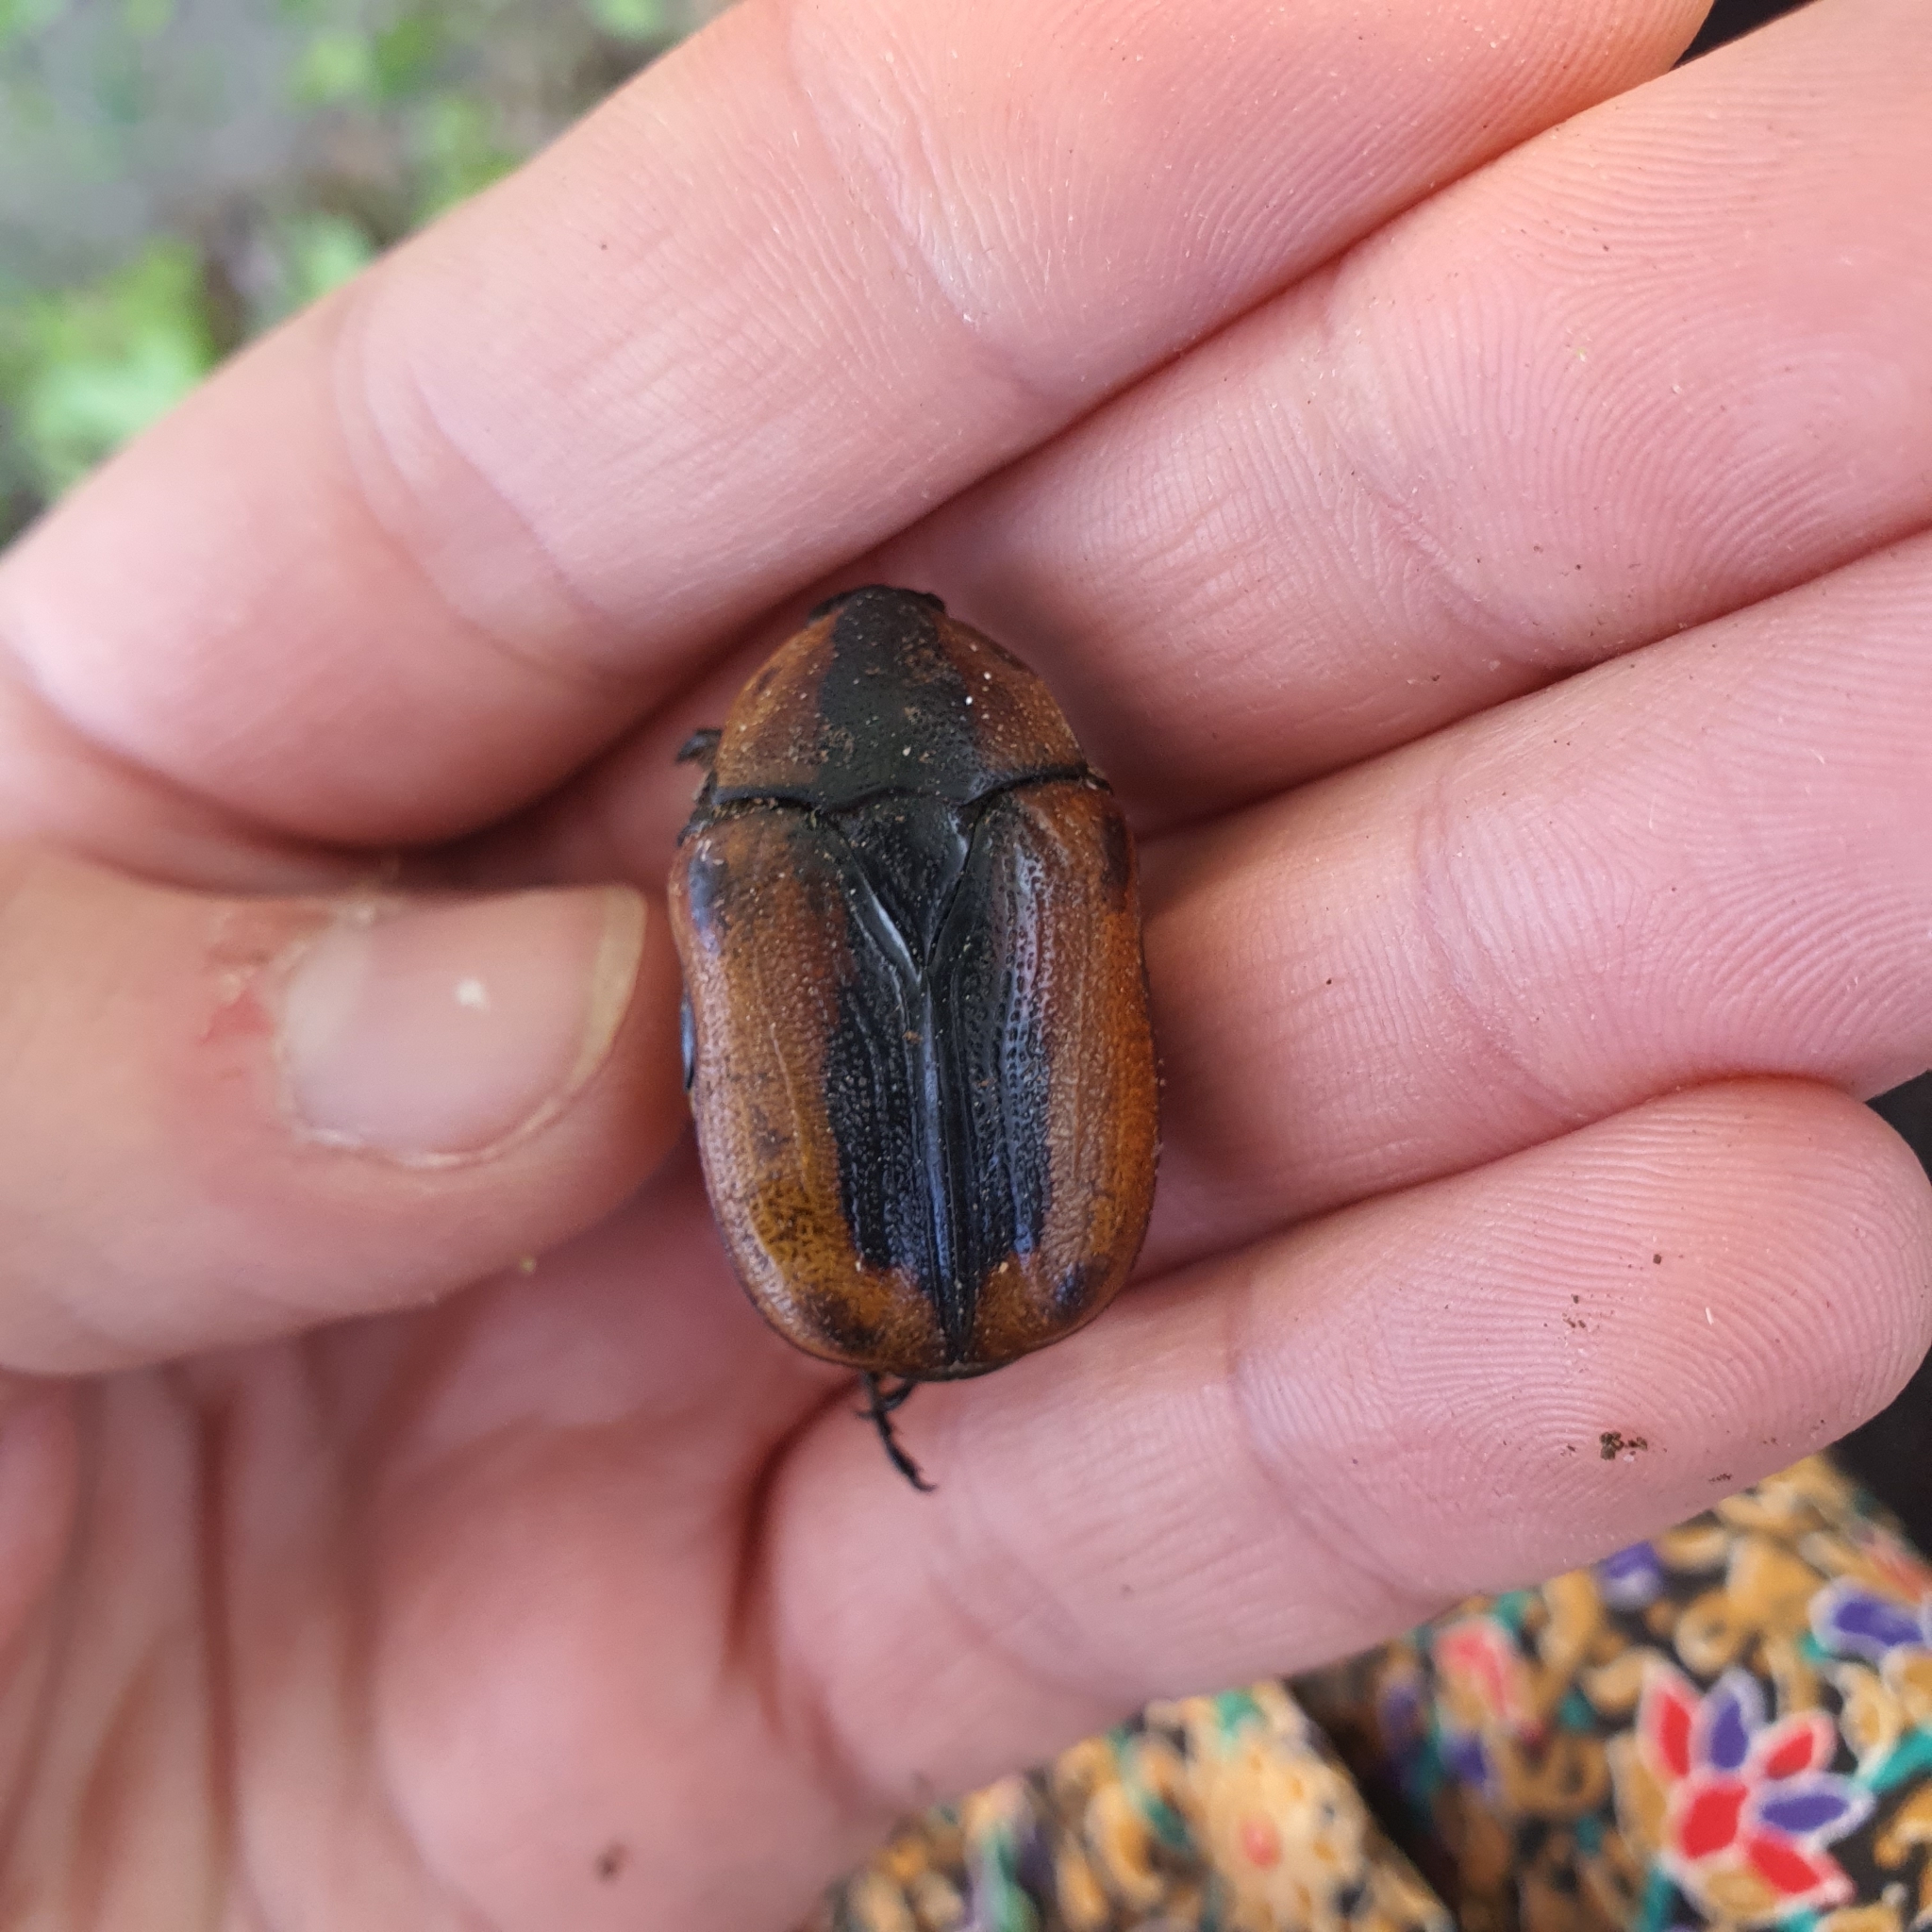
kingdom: Animalia
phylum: Arthropoda
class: Insecta
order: Coleoptera
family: Scarabaeidae
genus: Chondropyga
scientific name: Chondropyga dorsalis
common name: Cowboy beetle
